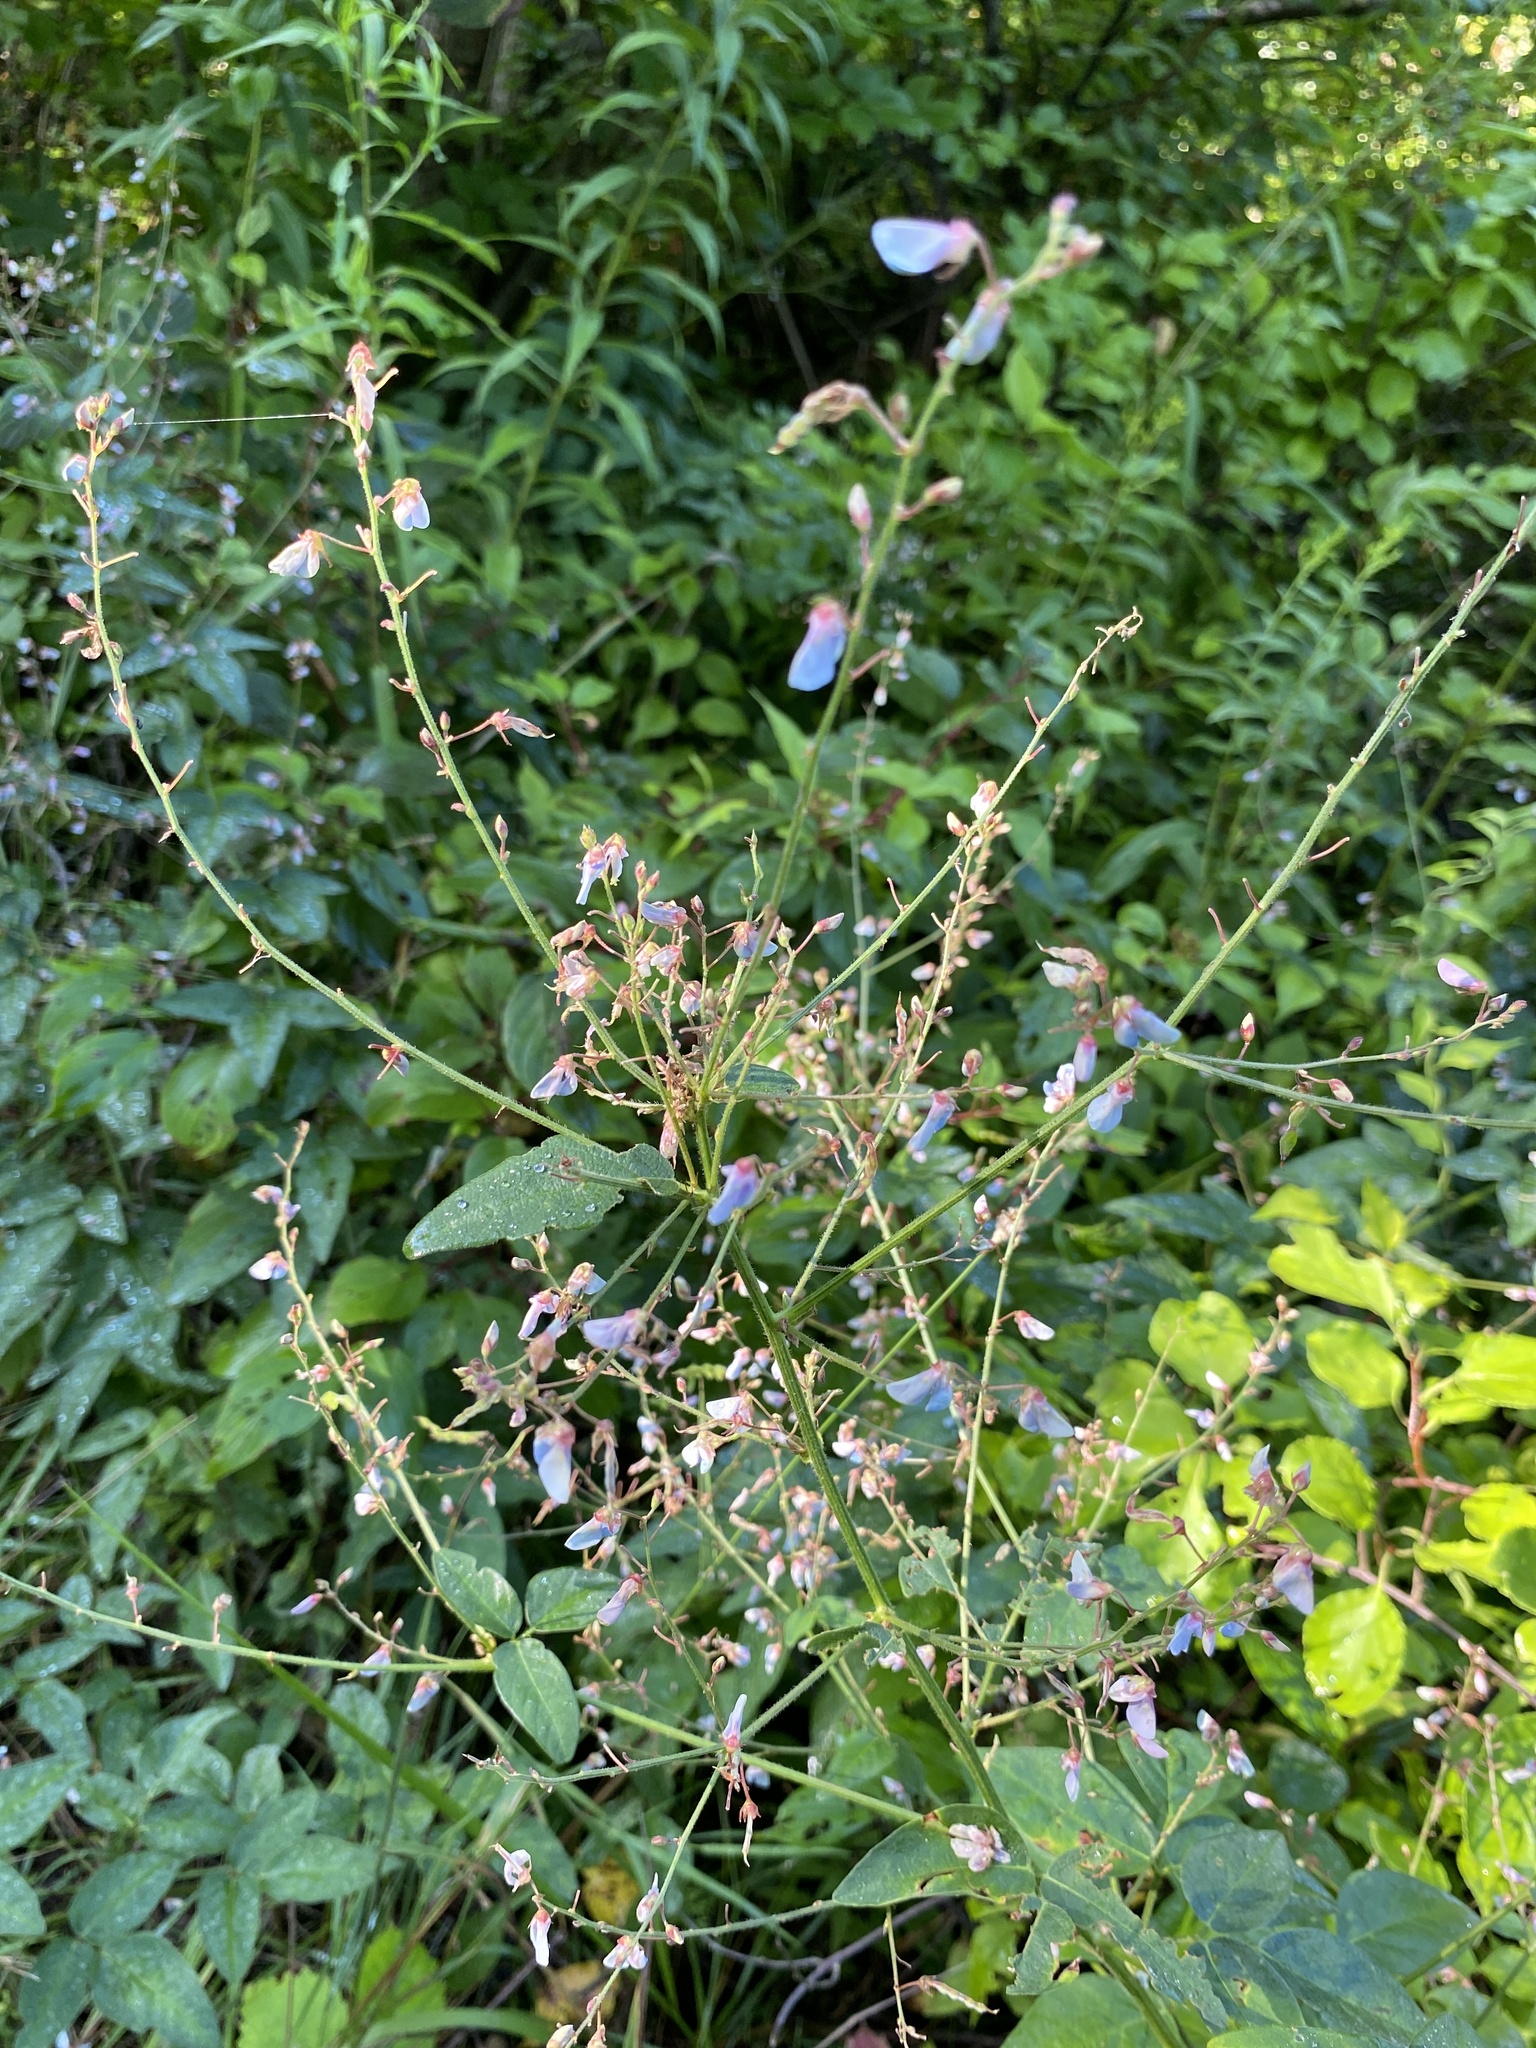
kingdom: Plantae
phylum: Tracheophyta
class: Magnoliopsida
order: Fabales
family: Fabaceae
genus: Desmodium
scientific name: Desmodium glabellum
